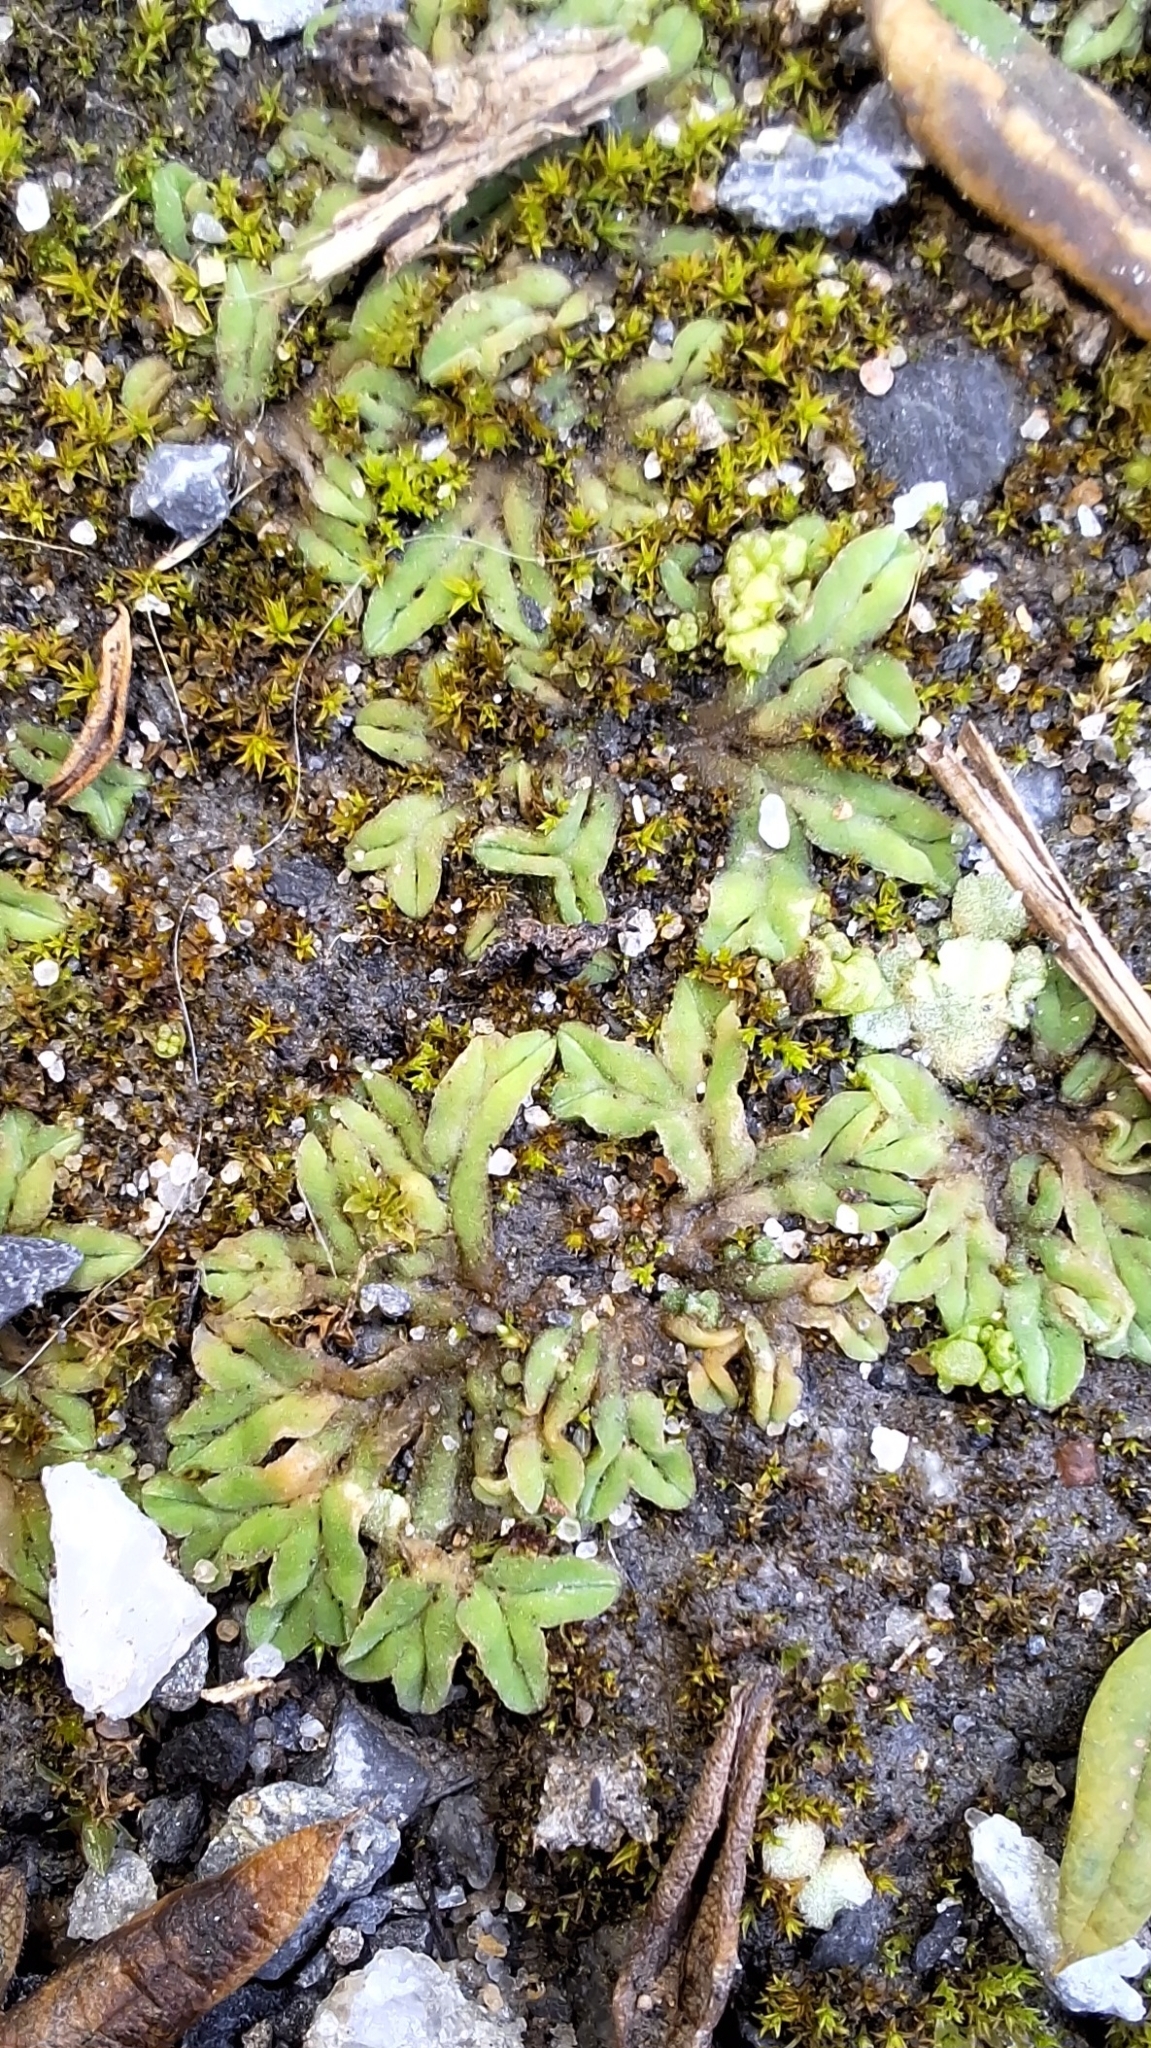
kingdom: Plantae
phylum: Marchantiophyta
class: Marchantiopsida
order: Marchantiales
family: Ricciaceae
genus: Riccia
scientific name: Riccia sorocarpa
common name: Common crystalwort
